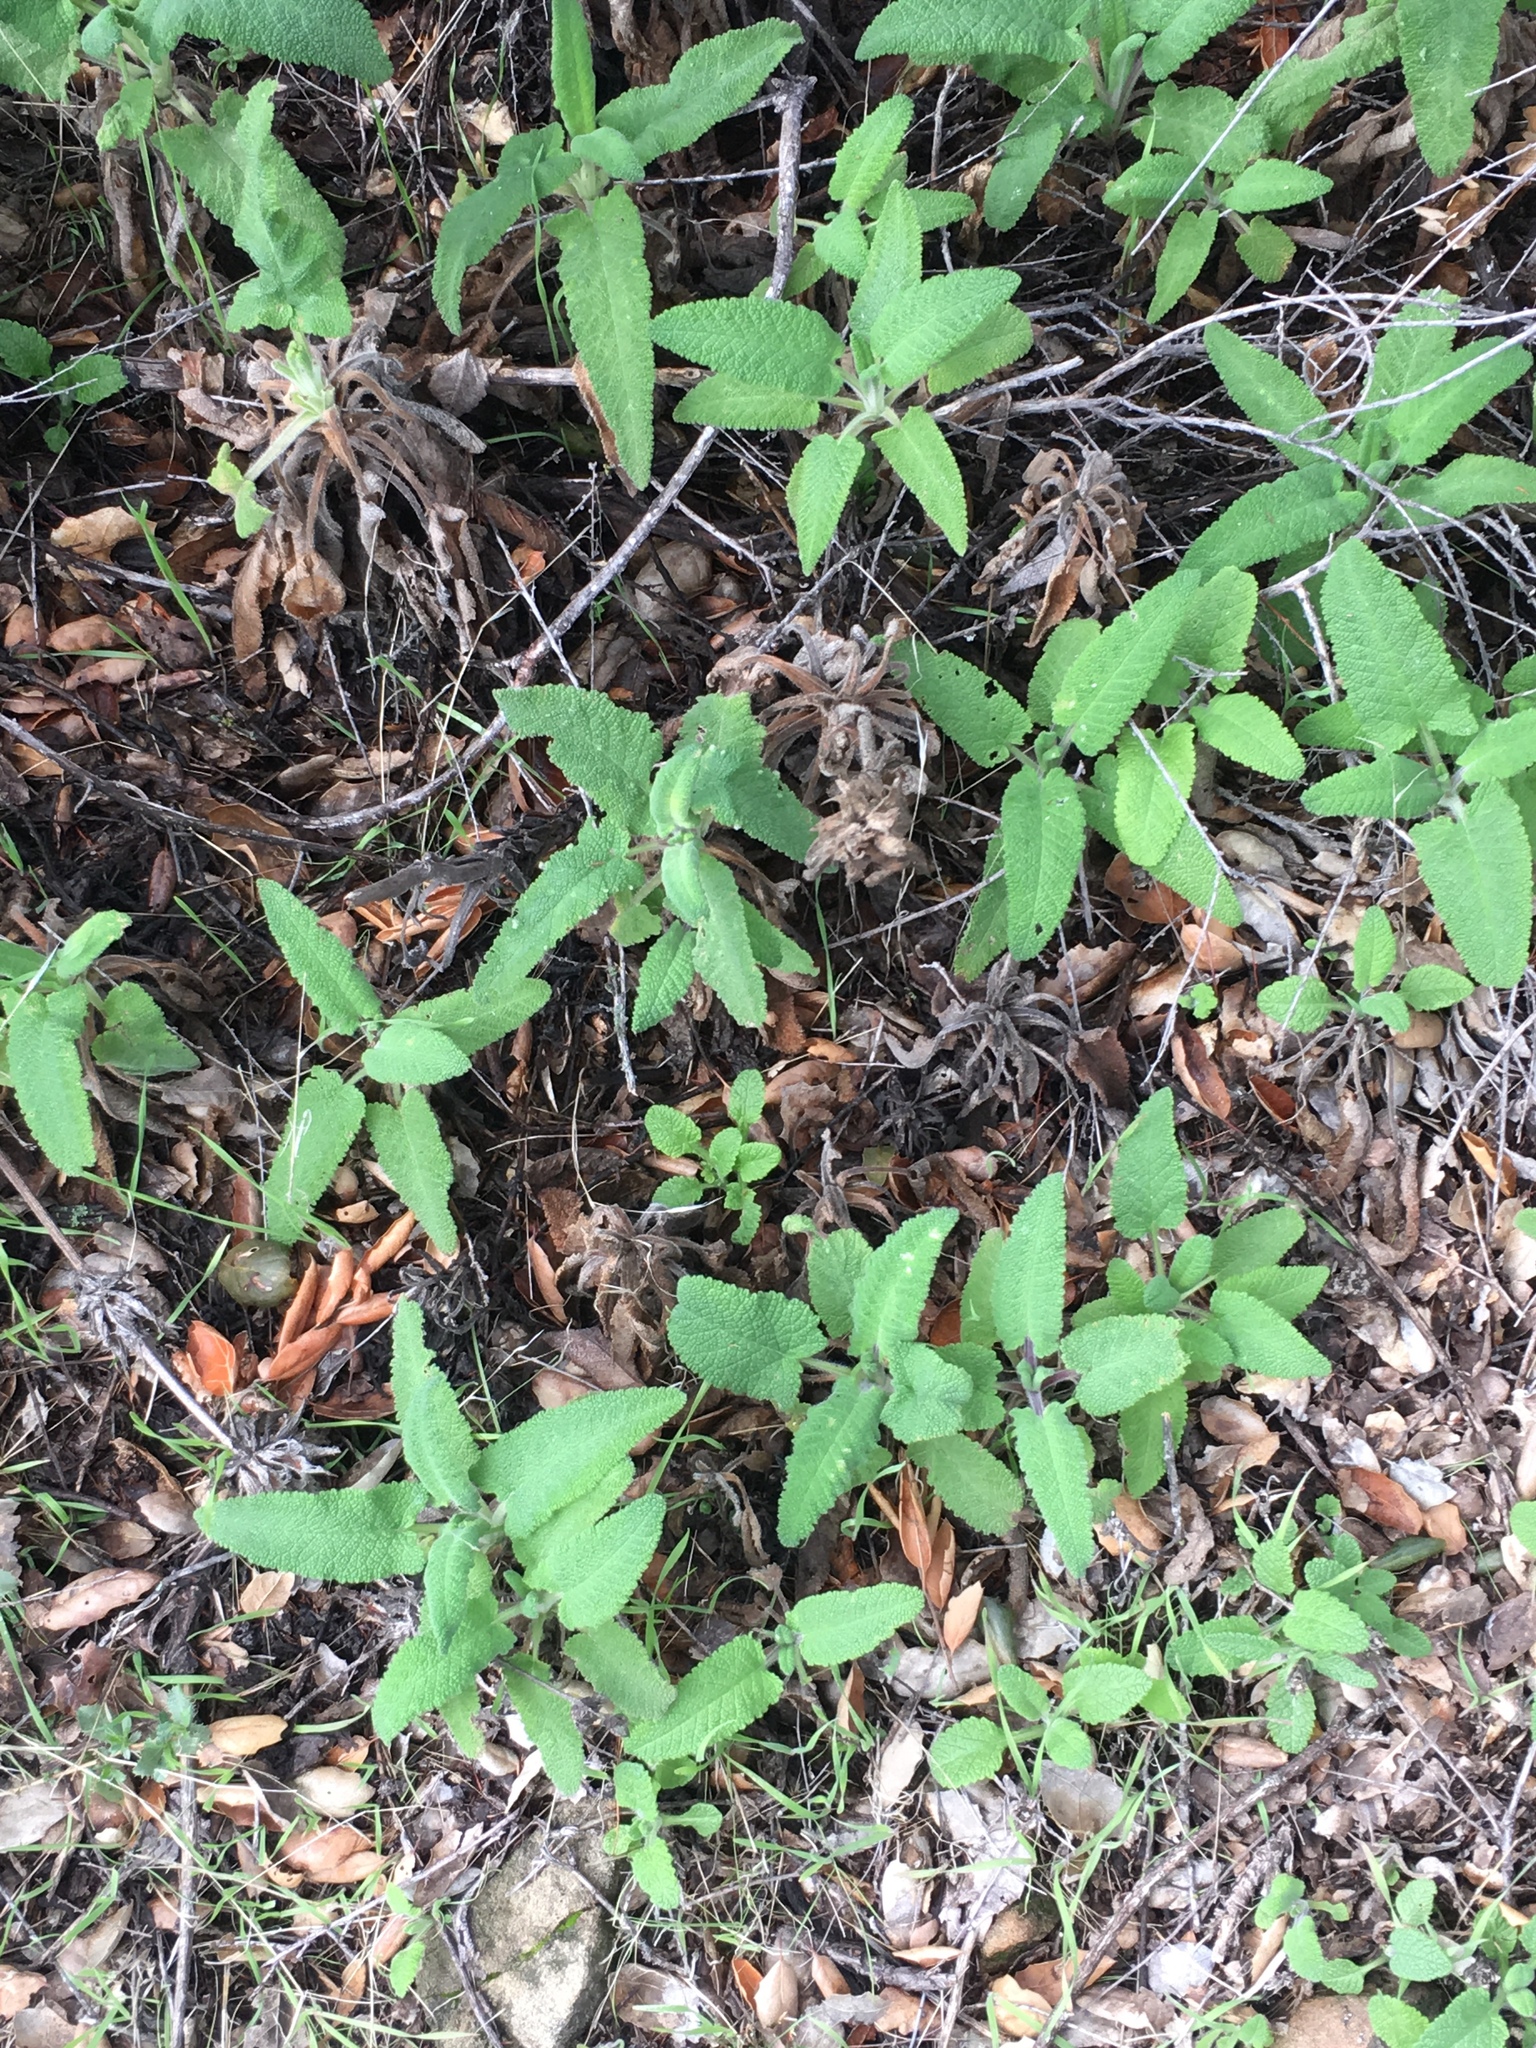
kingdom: Plantae
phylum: Tracheophyta
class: Magnoliopsida
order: Lamiales
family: Lamiaceae
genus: Salvia
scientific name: Salvia spathacea
